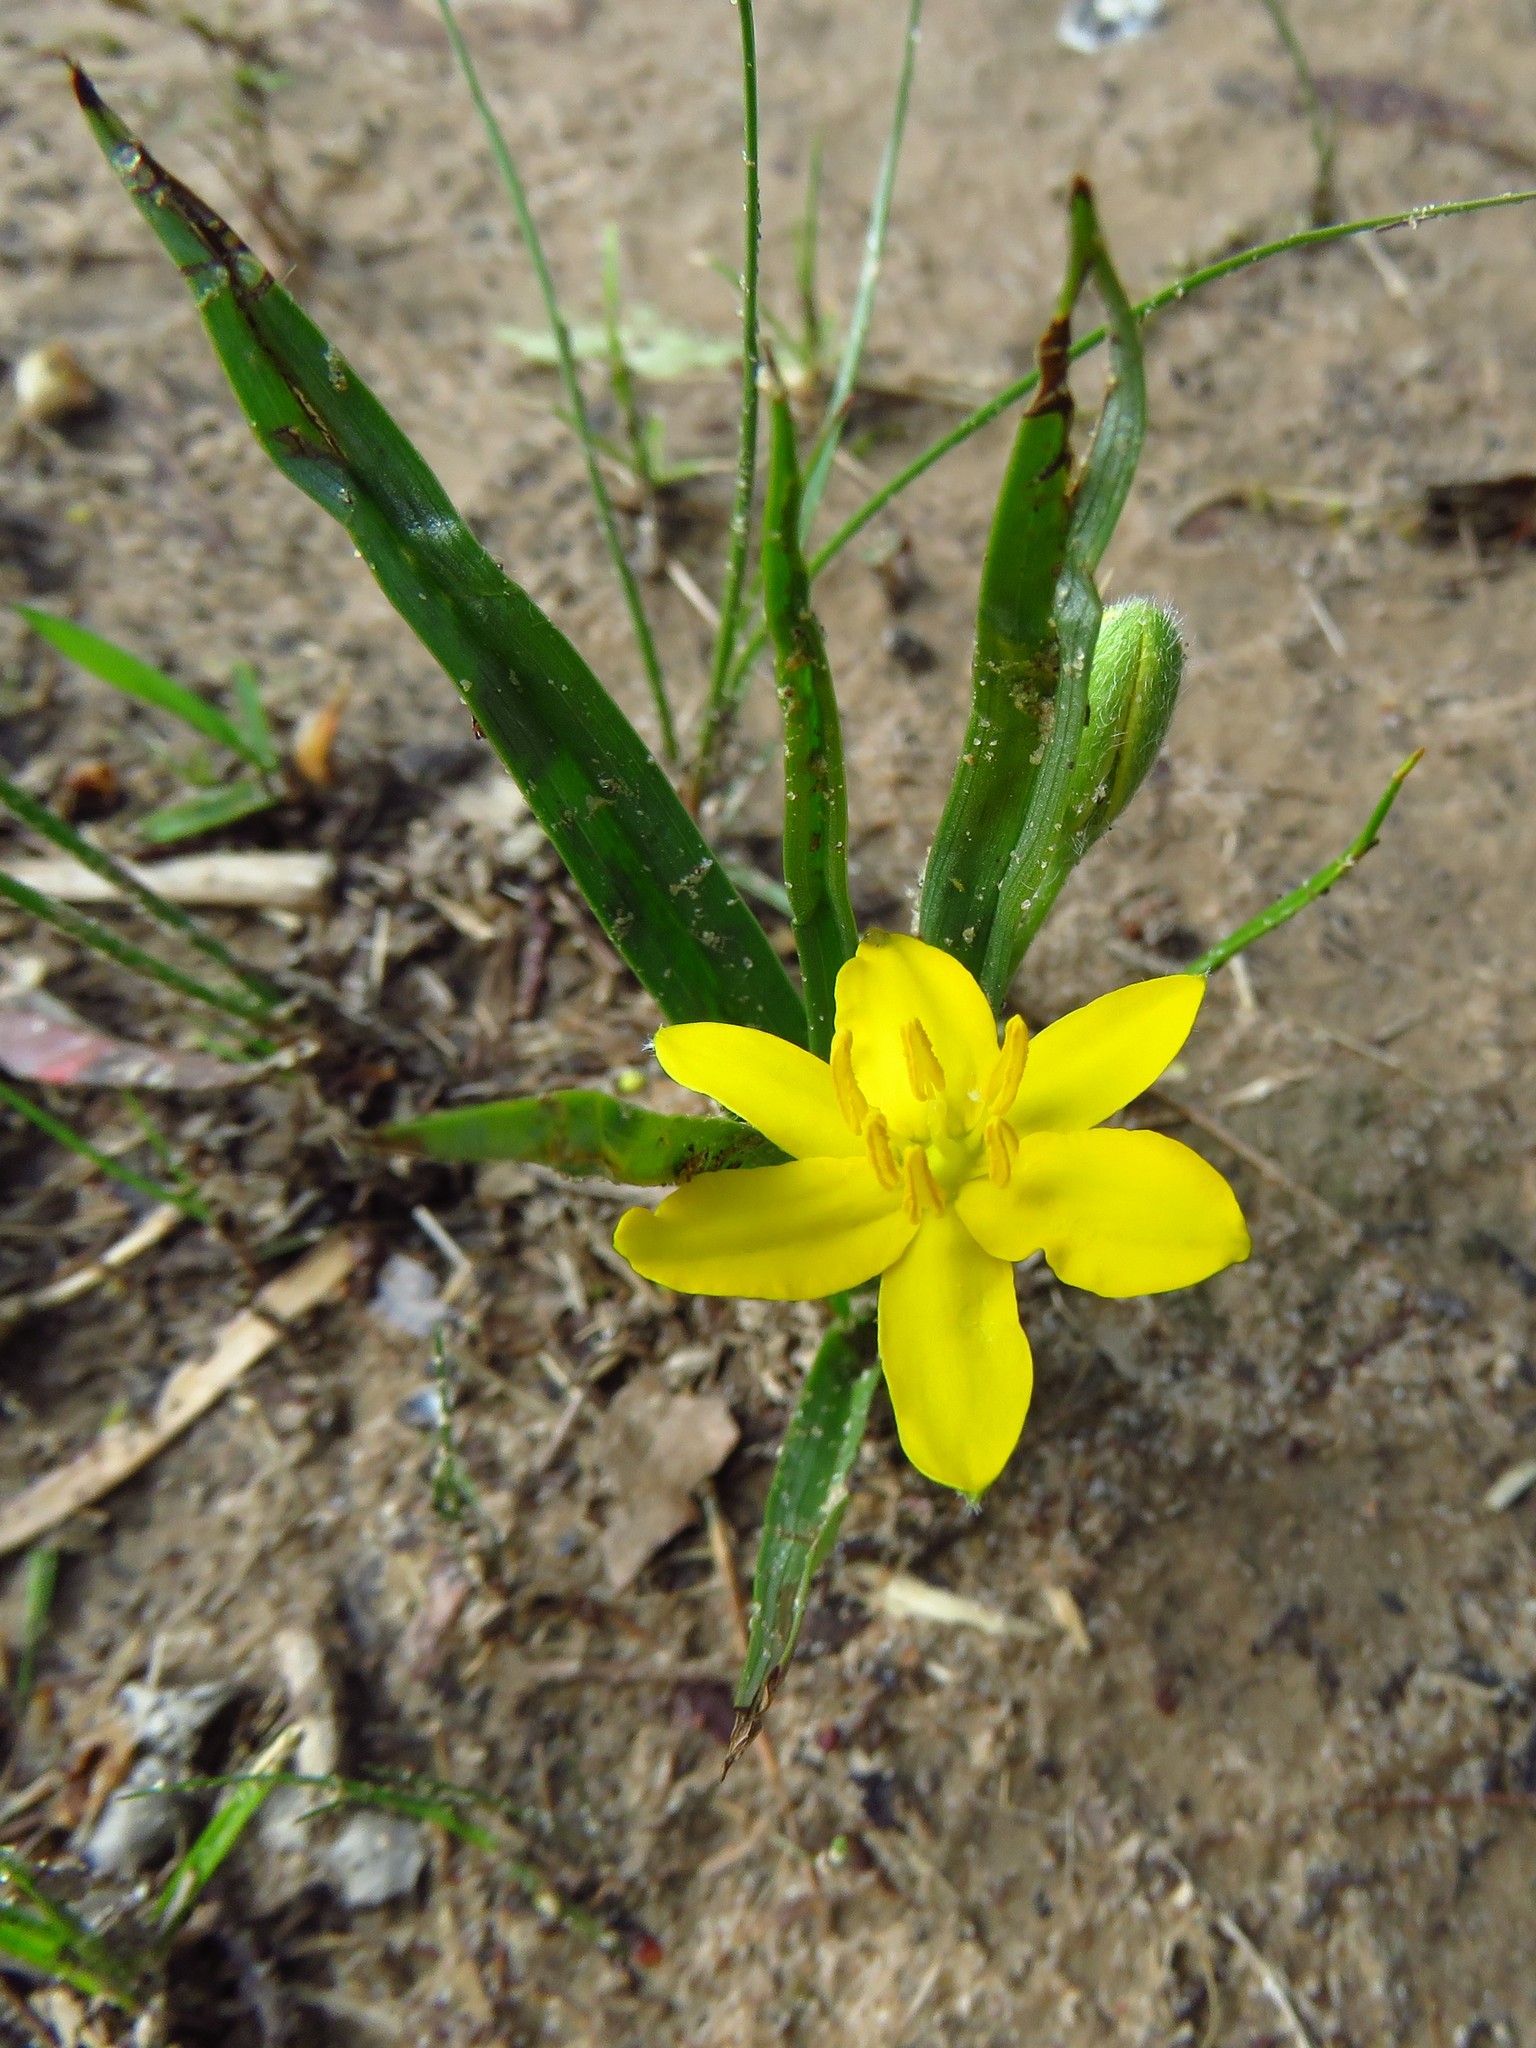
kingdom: Plantae
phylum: Tracheophyta
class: Liliopsida
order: Asparagales
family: Hypoxidaceae
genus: Hypoxis
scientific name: Hypoxis hirsuta
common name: Common goldstar
